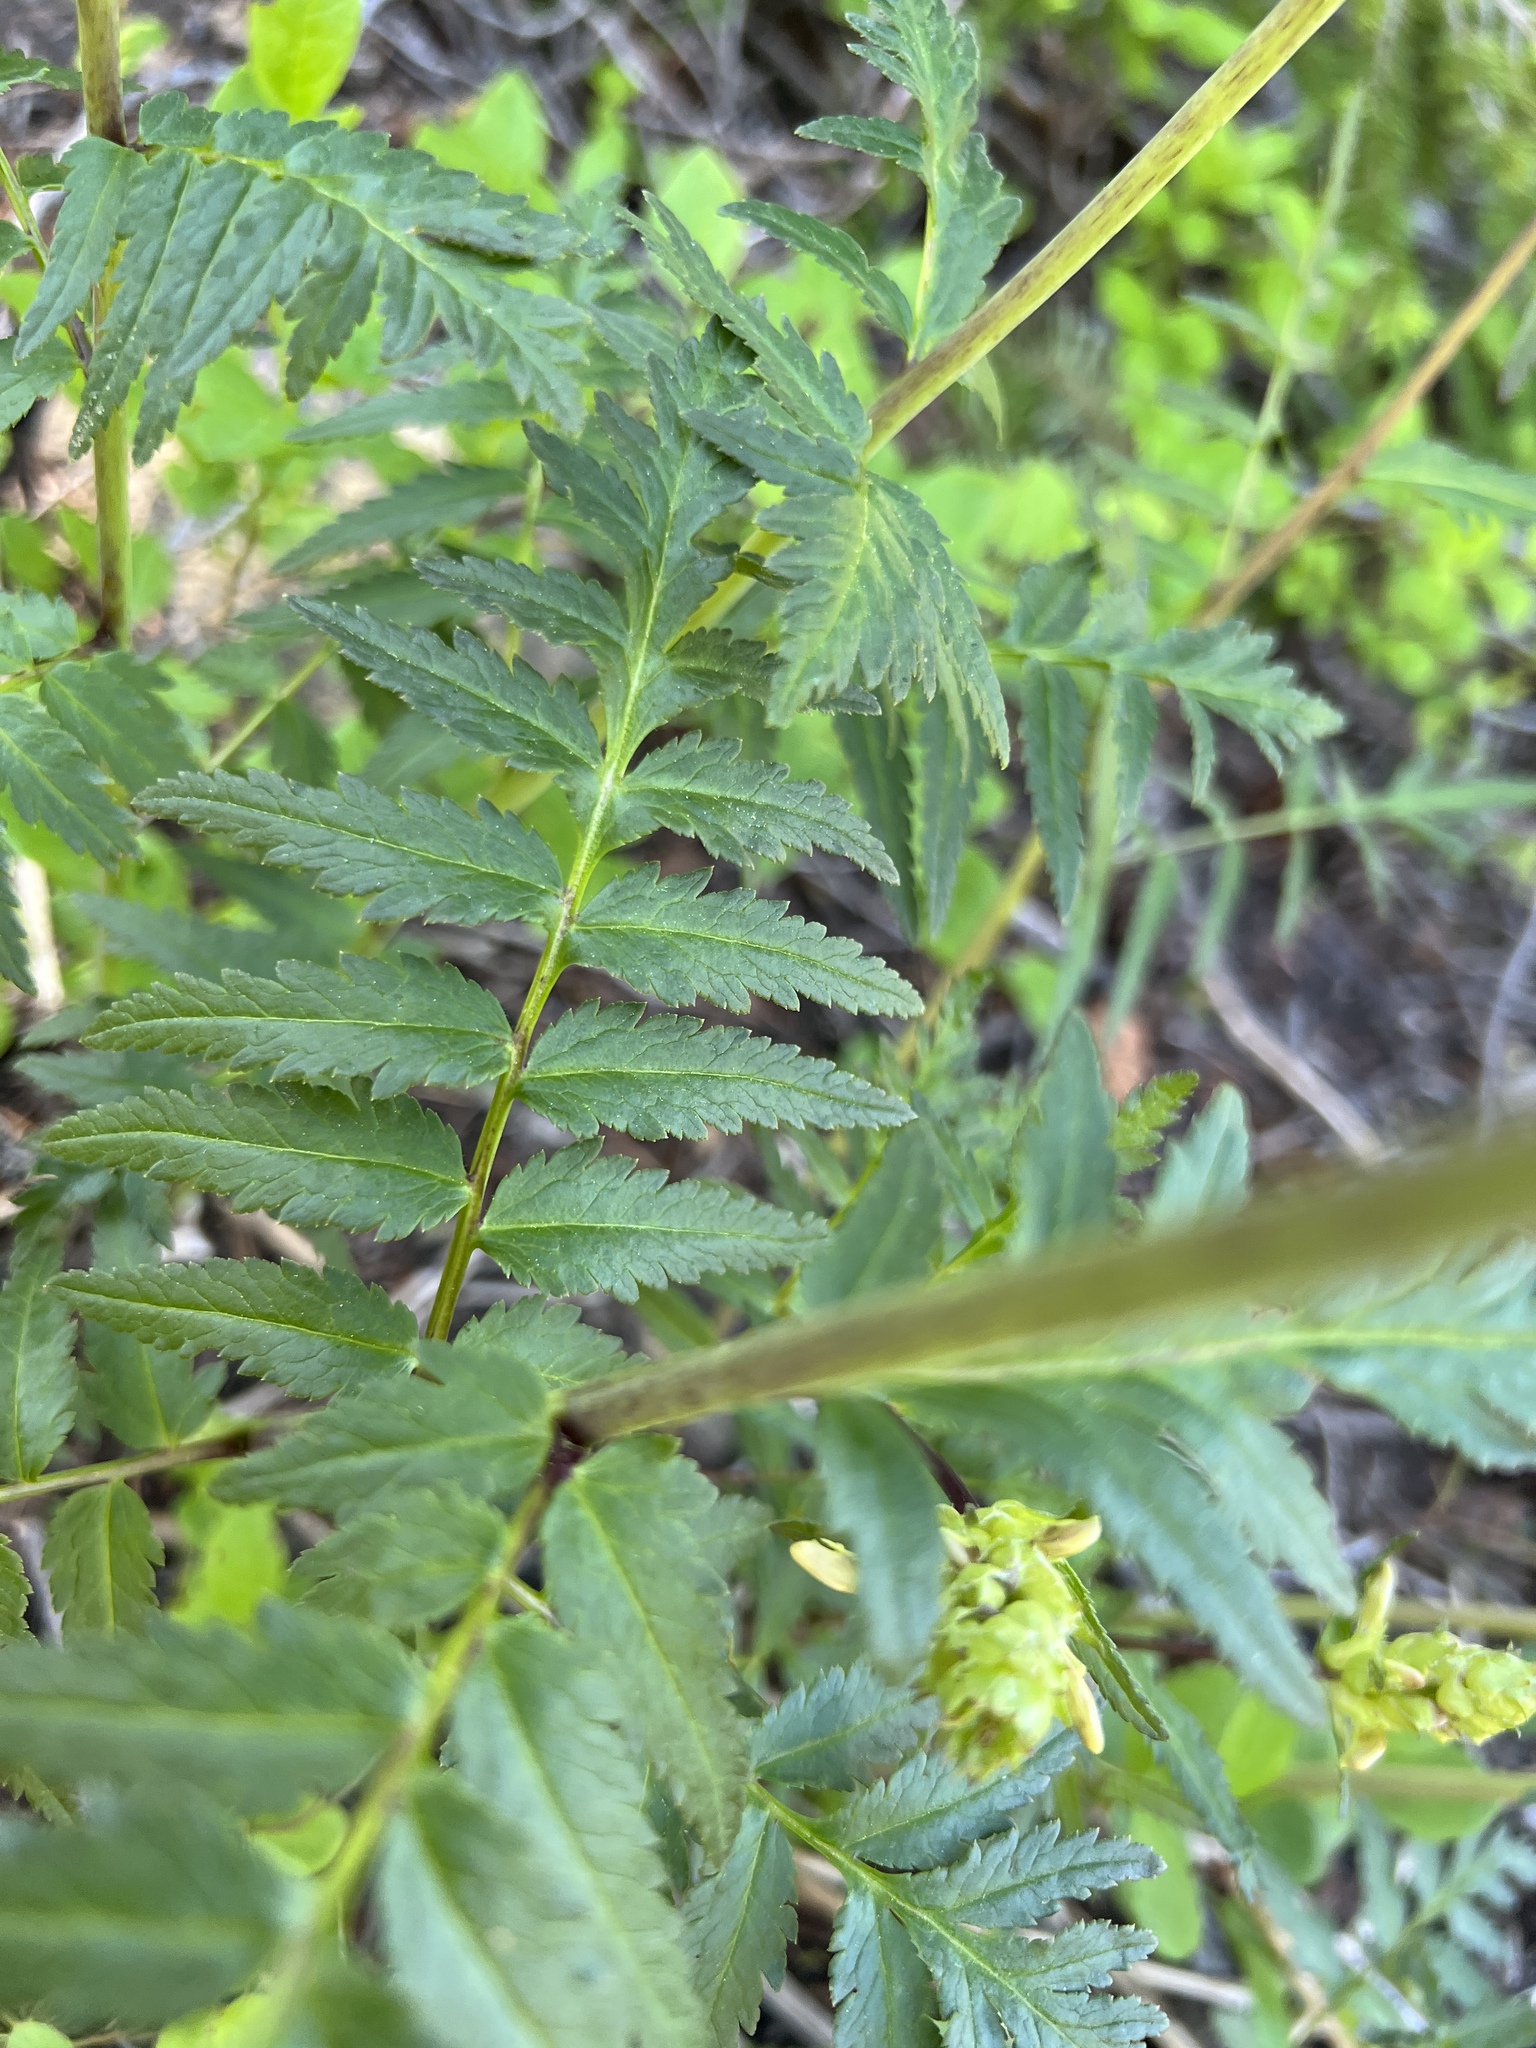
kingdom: Plantae
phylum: Tracheophyta
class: Magnoliopsida
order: Lamiales
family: Orobanchaceae
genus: Pedicularis
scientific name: Pedicularis bracteosa
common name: Bracted lousewort
